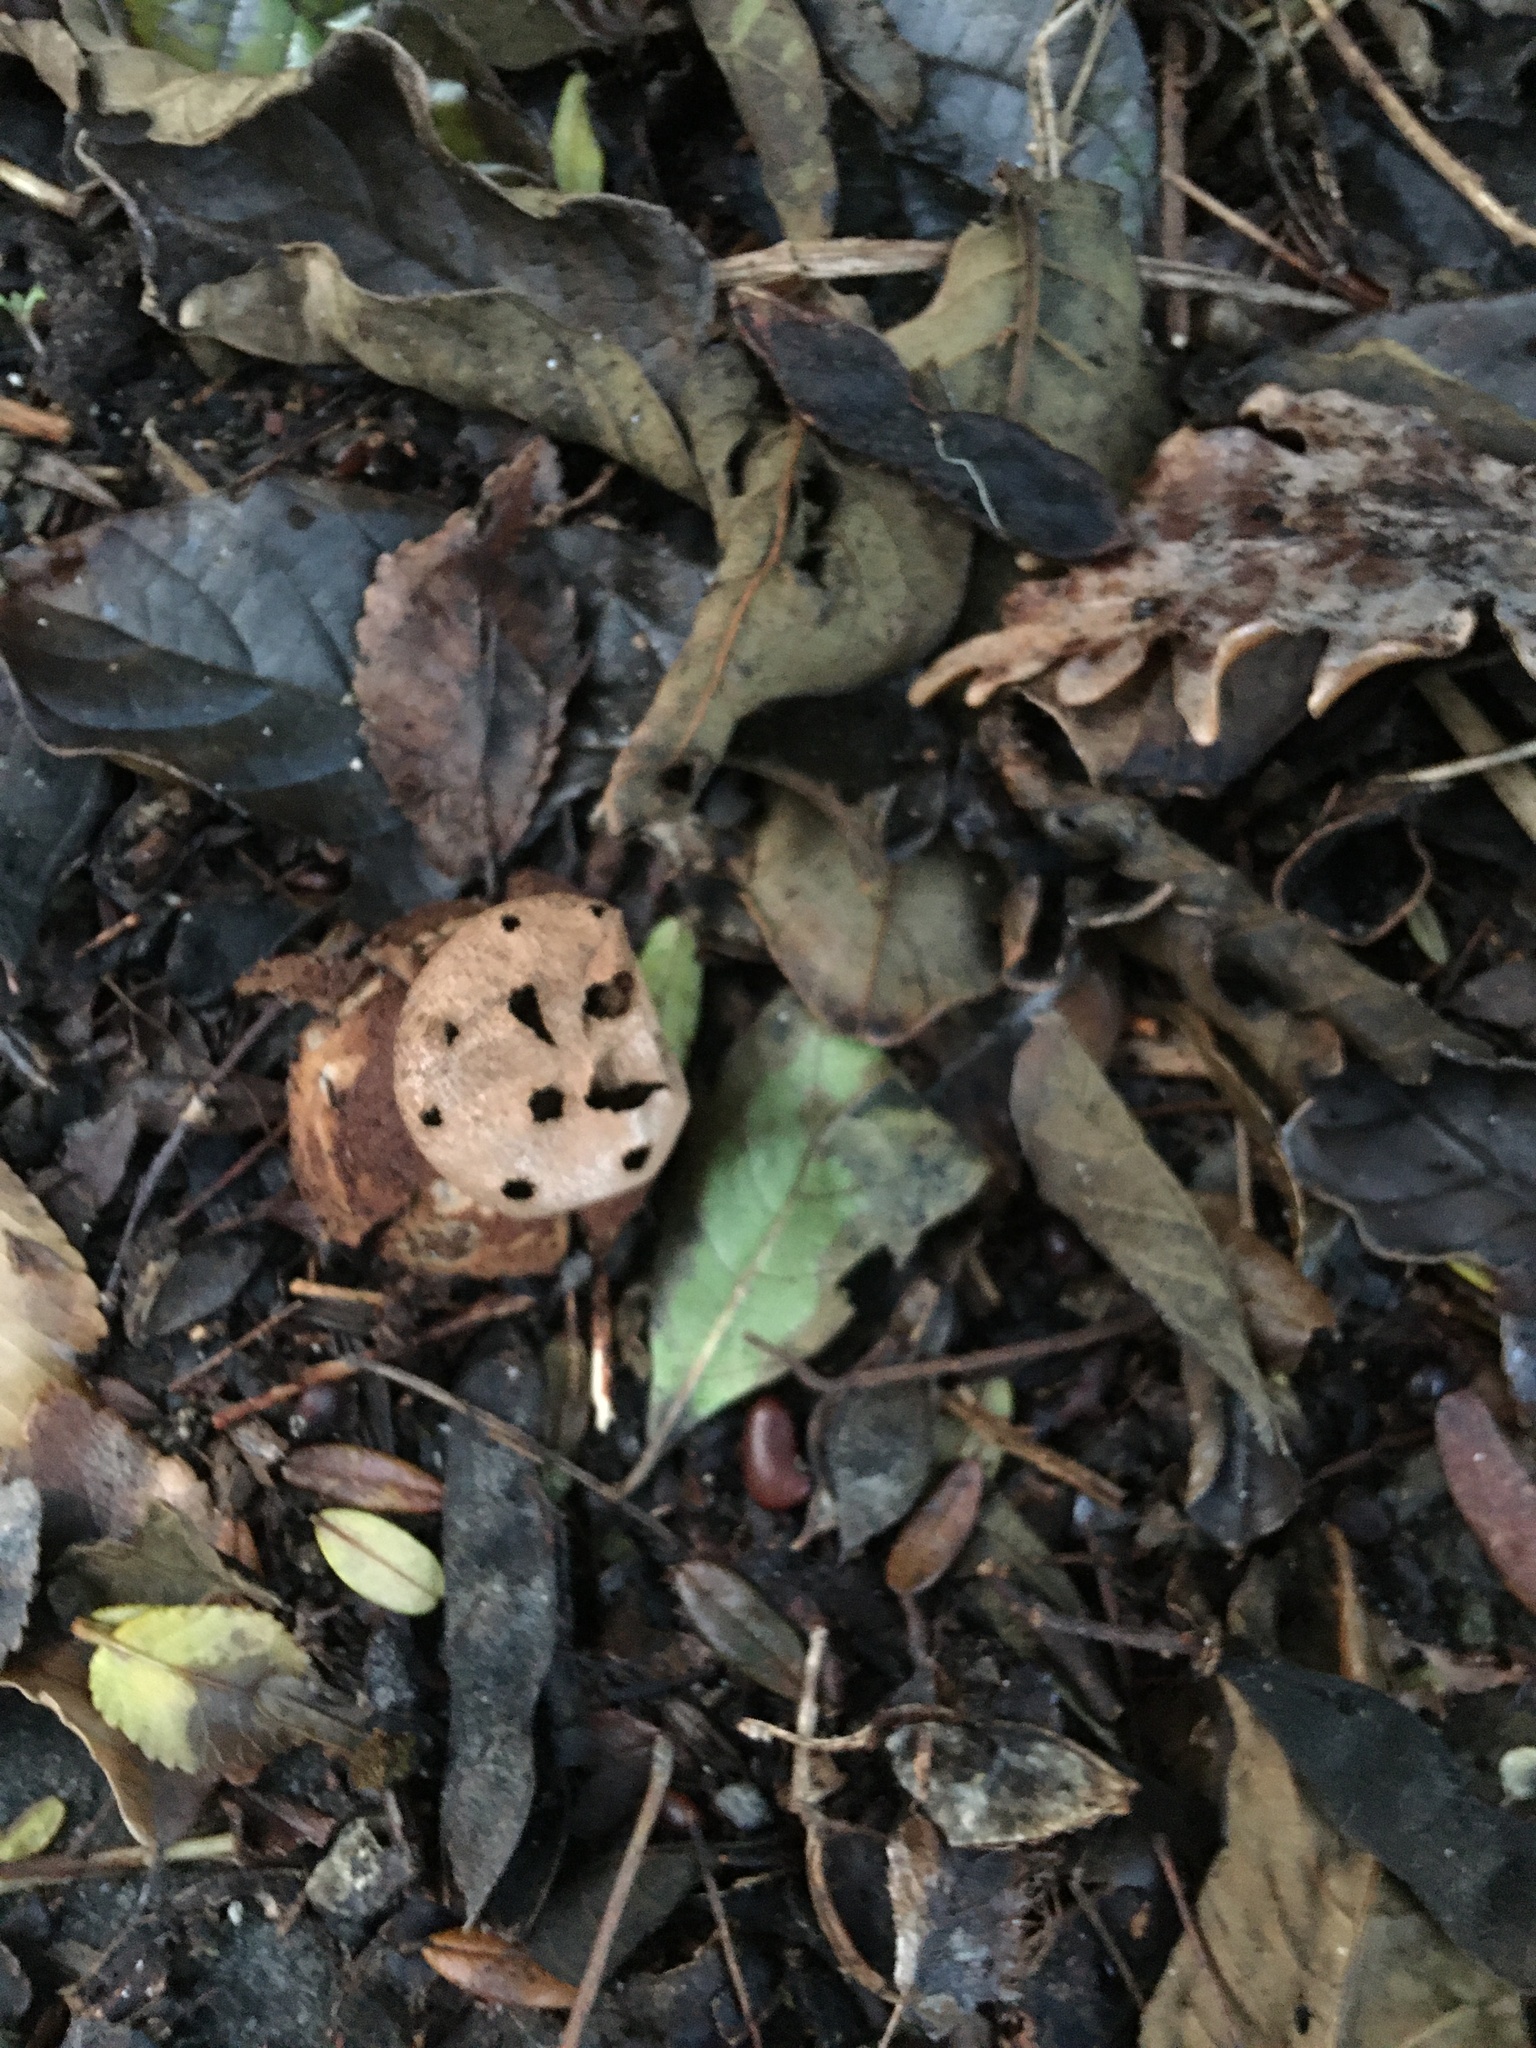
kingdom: Fungi
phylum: Basidiomycota
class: Agaricomycetes
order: Geastrales
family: Geastraceae
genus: Myriostoma
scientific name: Myriostoma capillisporum
